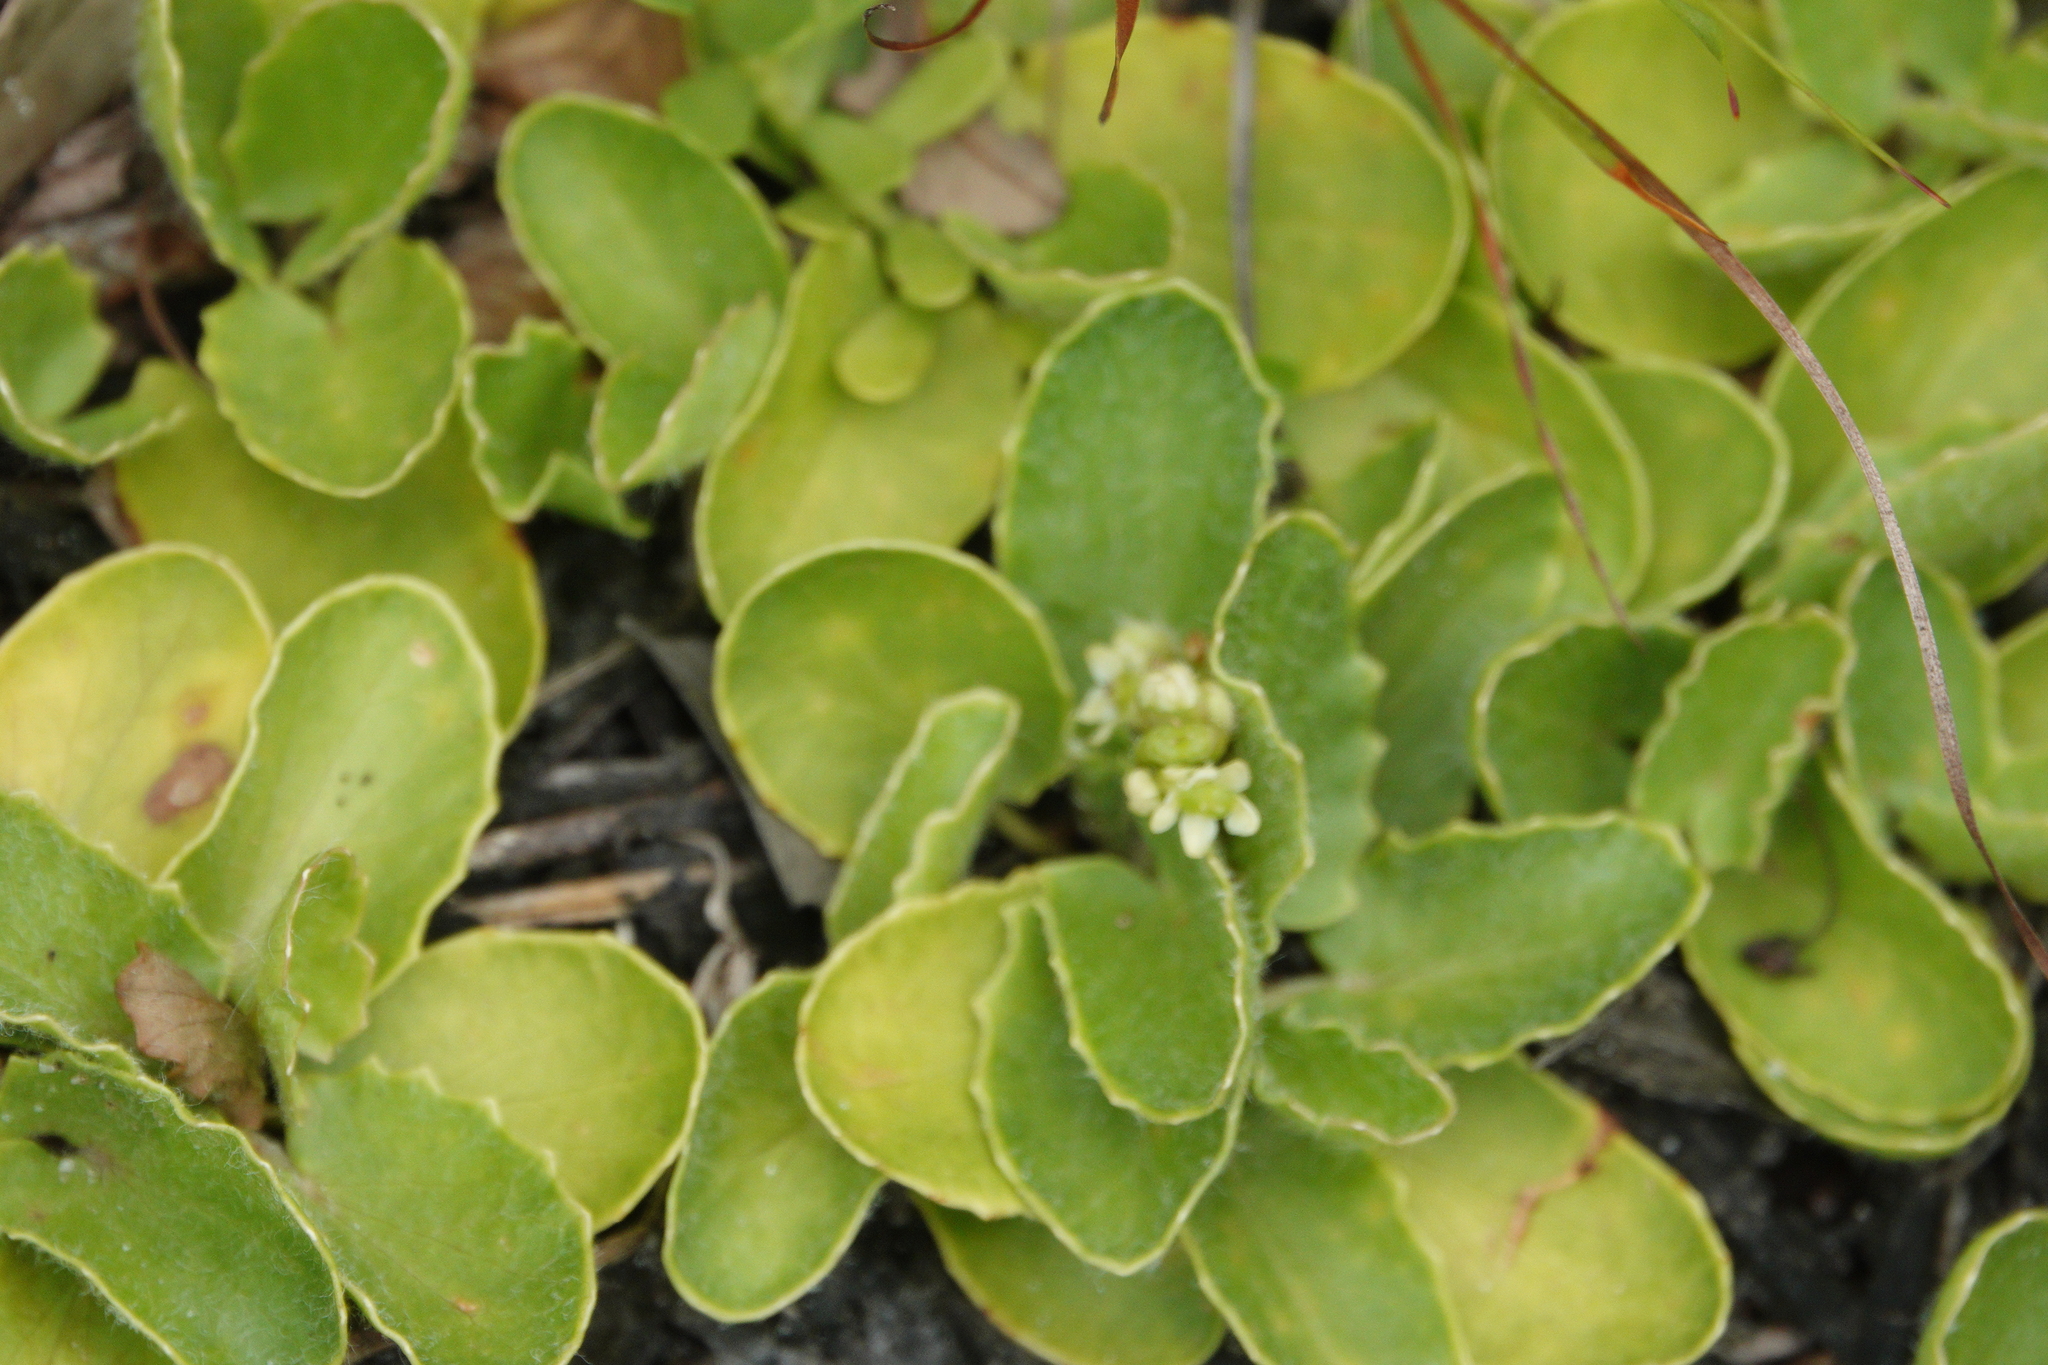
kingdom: Plantae
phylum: Tracheophyta
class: Magnoliopsida
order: Apiales
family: Apiaceae
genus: Centella
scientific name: Centella erecta
